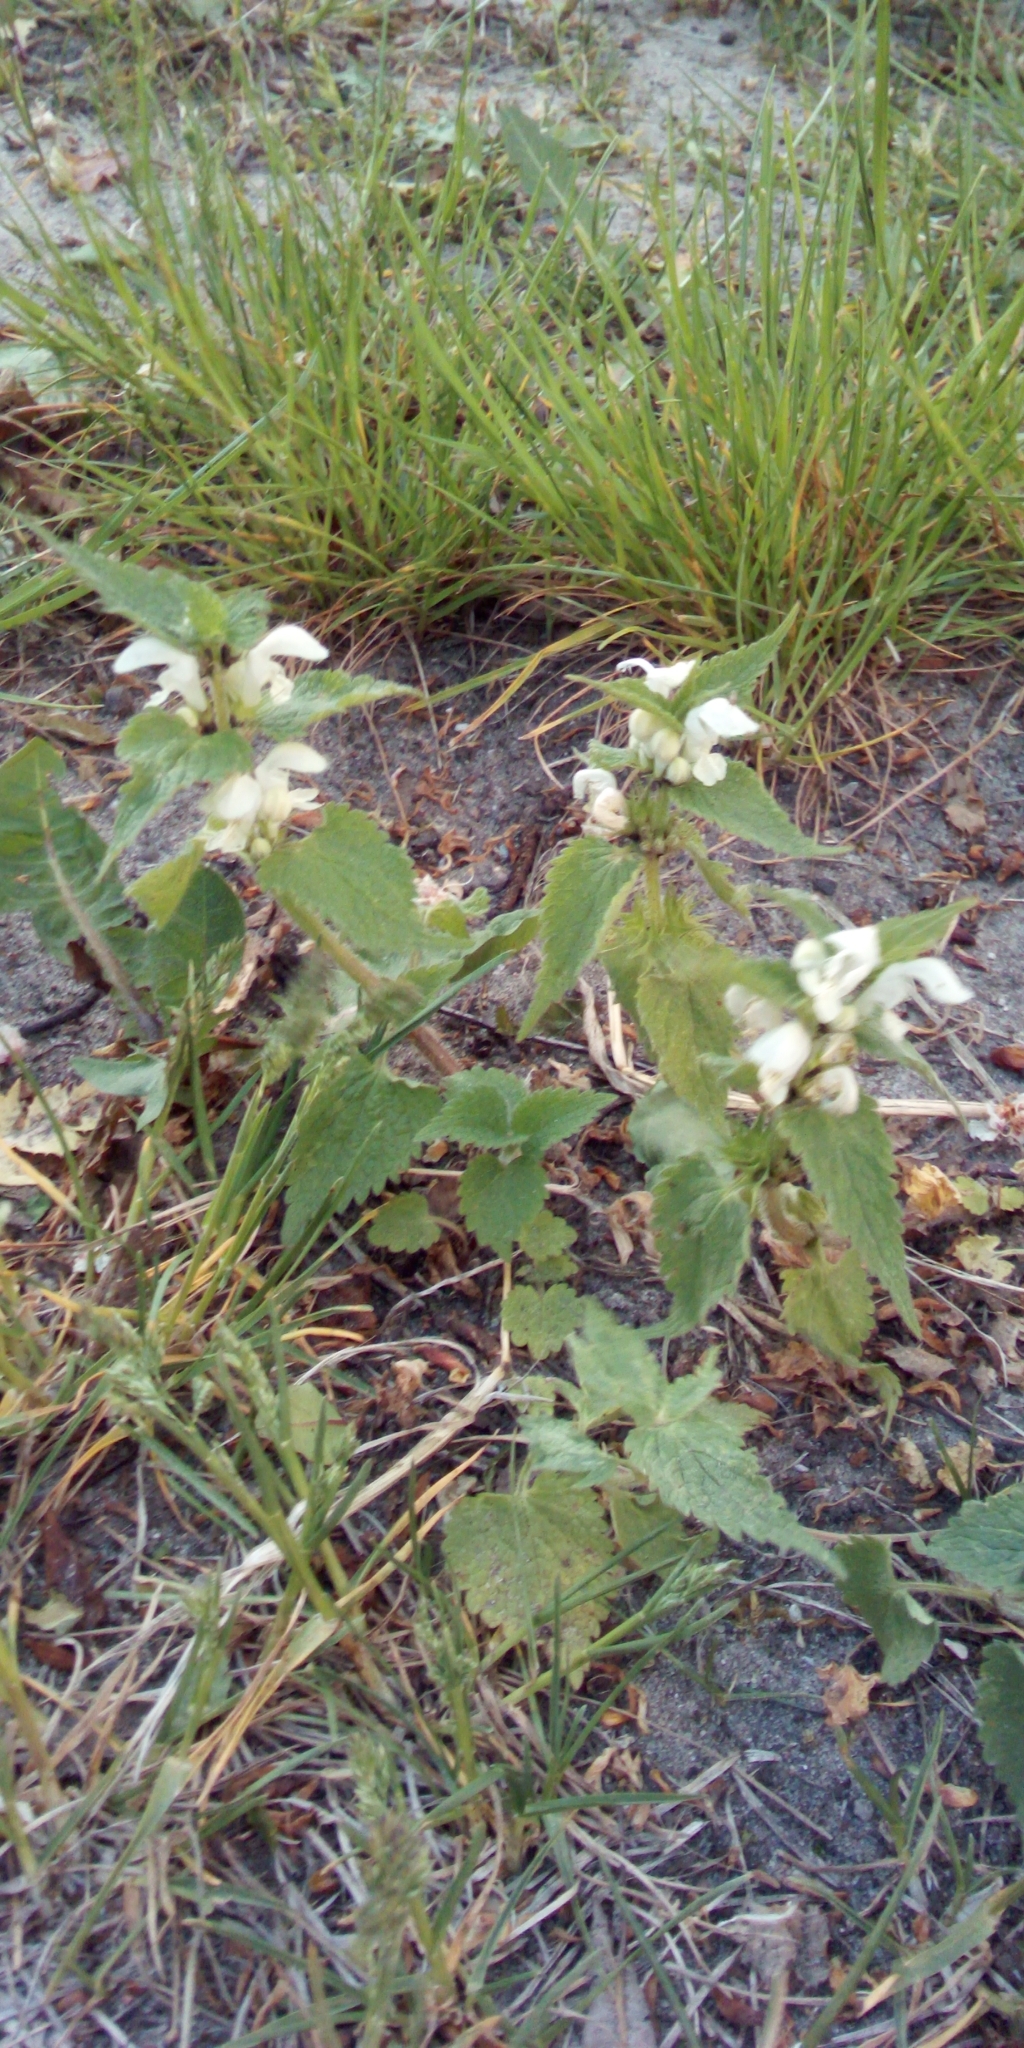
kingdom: Plantae
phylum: Tracheophyta
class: Magnoliopsida
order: Lamiales
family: Lamiaceae
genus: Lamium
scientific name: Lamium album
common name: White dead-nettle
